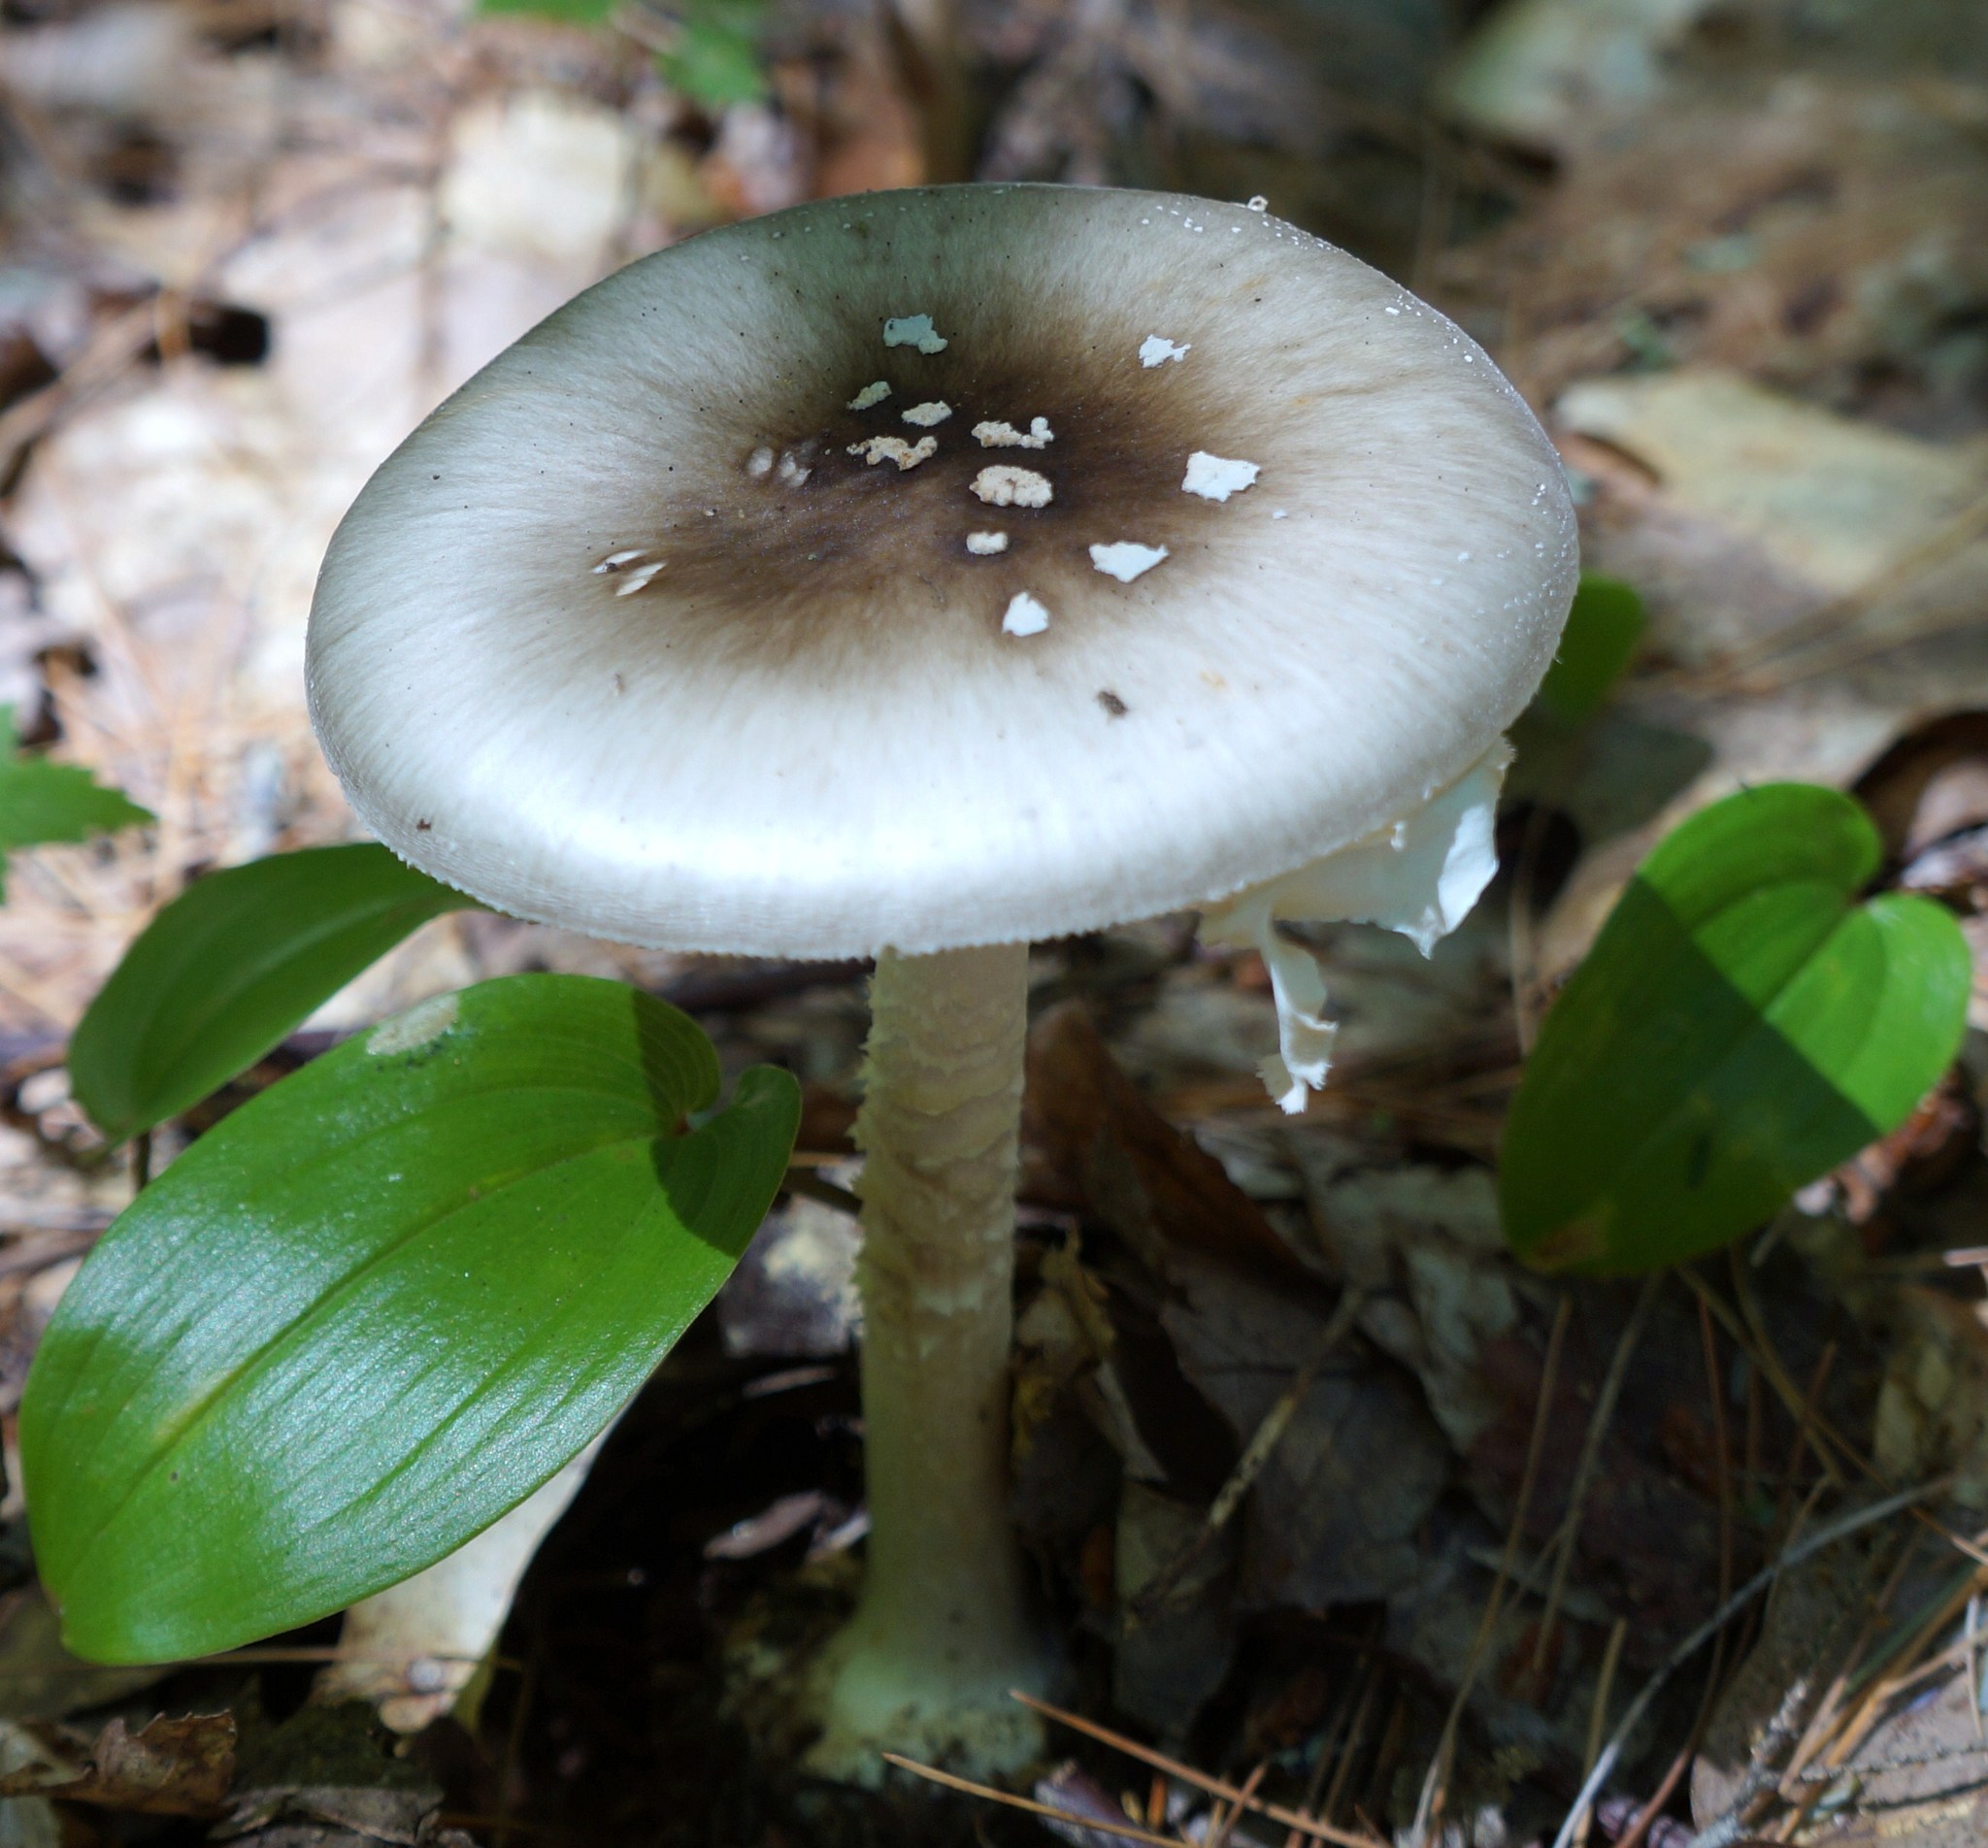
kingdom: Fungi
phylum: Basidiomycota
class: Agaricomycetes
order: Agaricales
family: Amanitaceae
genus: Amanita
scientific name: Amanita submaculata
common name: Ball gown amanita
